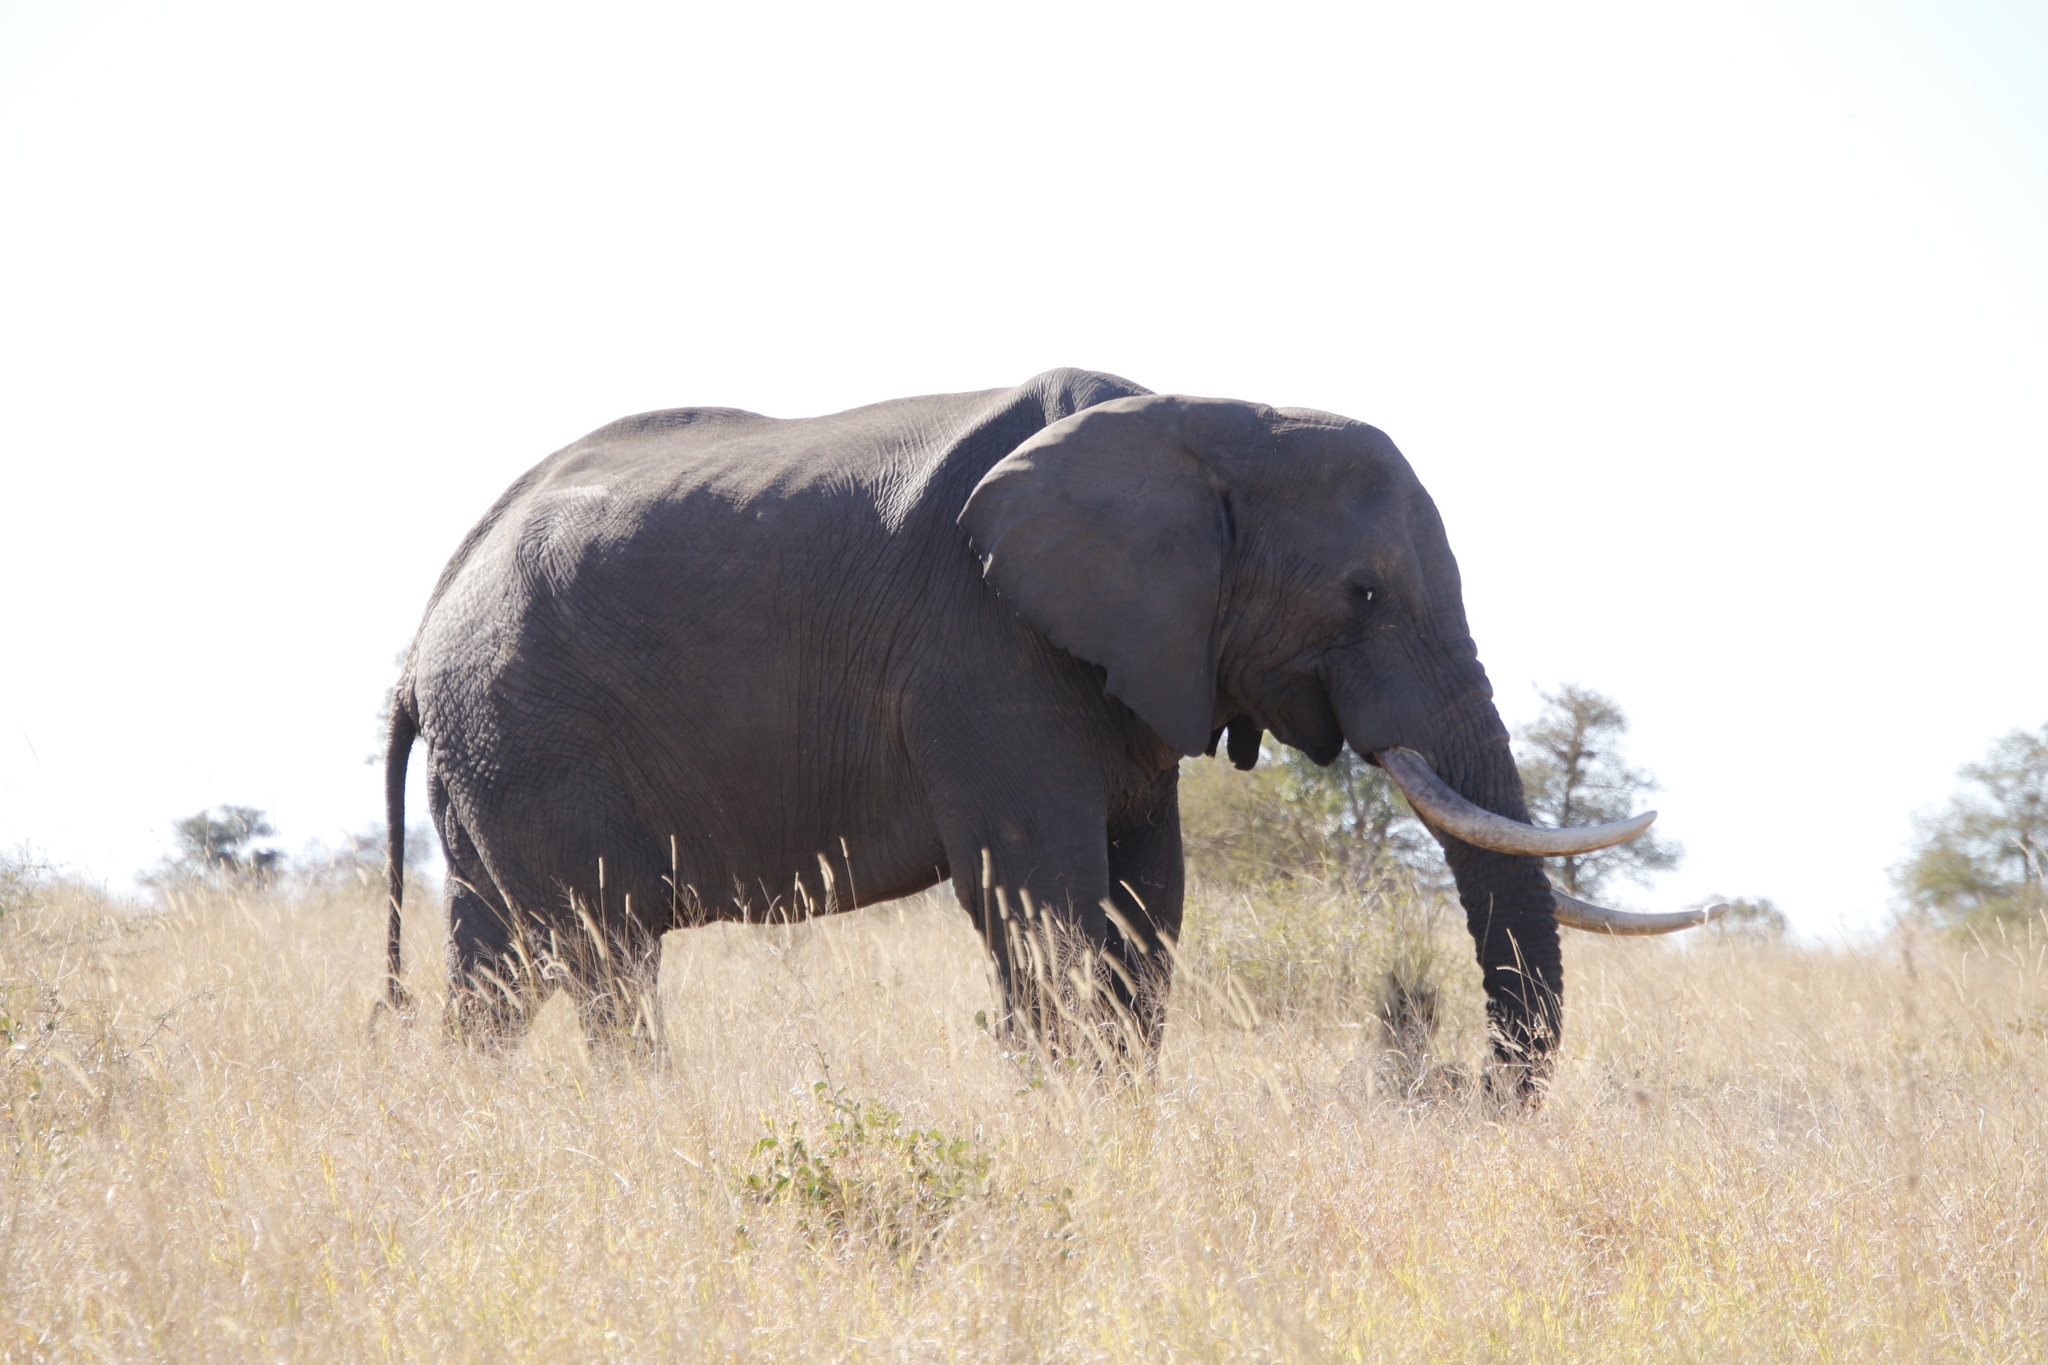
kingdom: Animalia
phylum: Chordata
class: Mammalia
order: Proboscidea
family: Elephantidae
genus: Loxodonta
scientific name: Loxodonta africana
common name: African elephant
